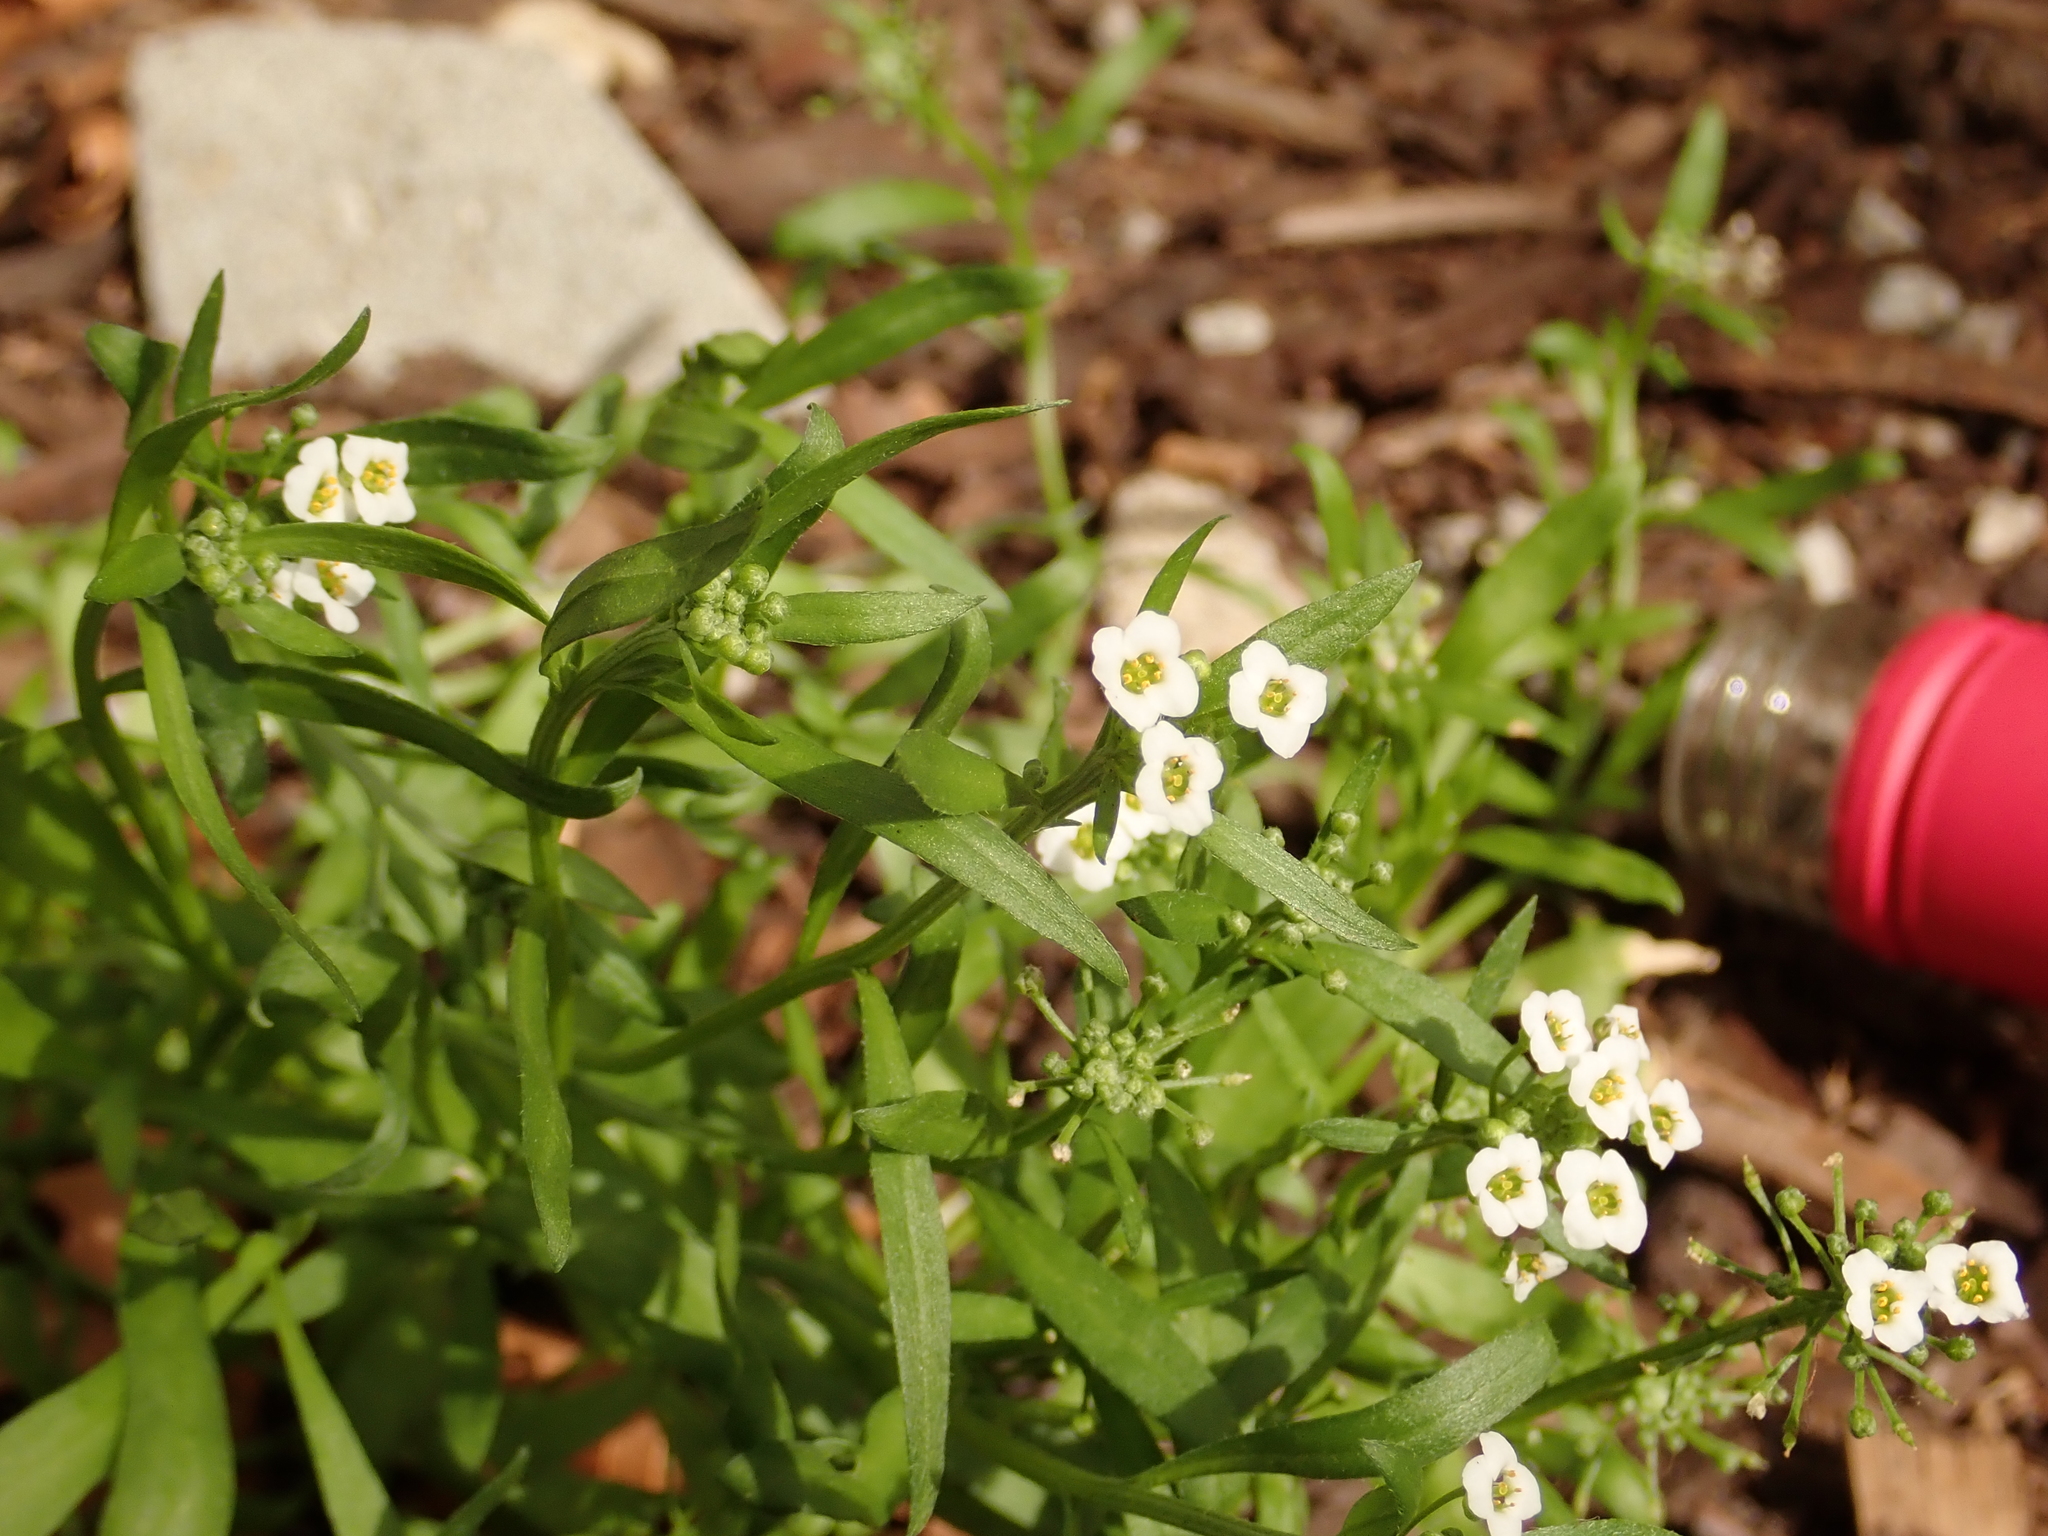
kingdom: Plantae
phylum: Tracheophyta
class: Magnoliopsida
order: Brassicales
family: Brassicaceae
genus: Lobularia
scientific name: Lobularia maritima
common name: Sweet alison
